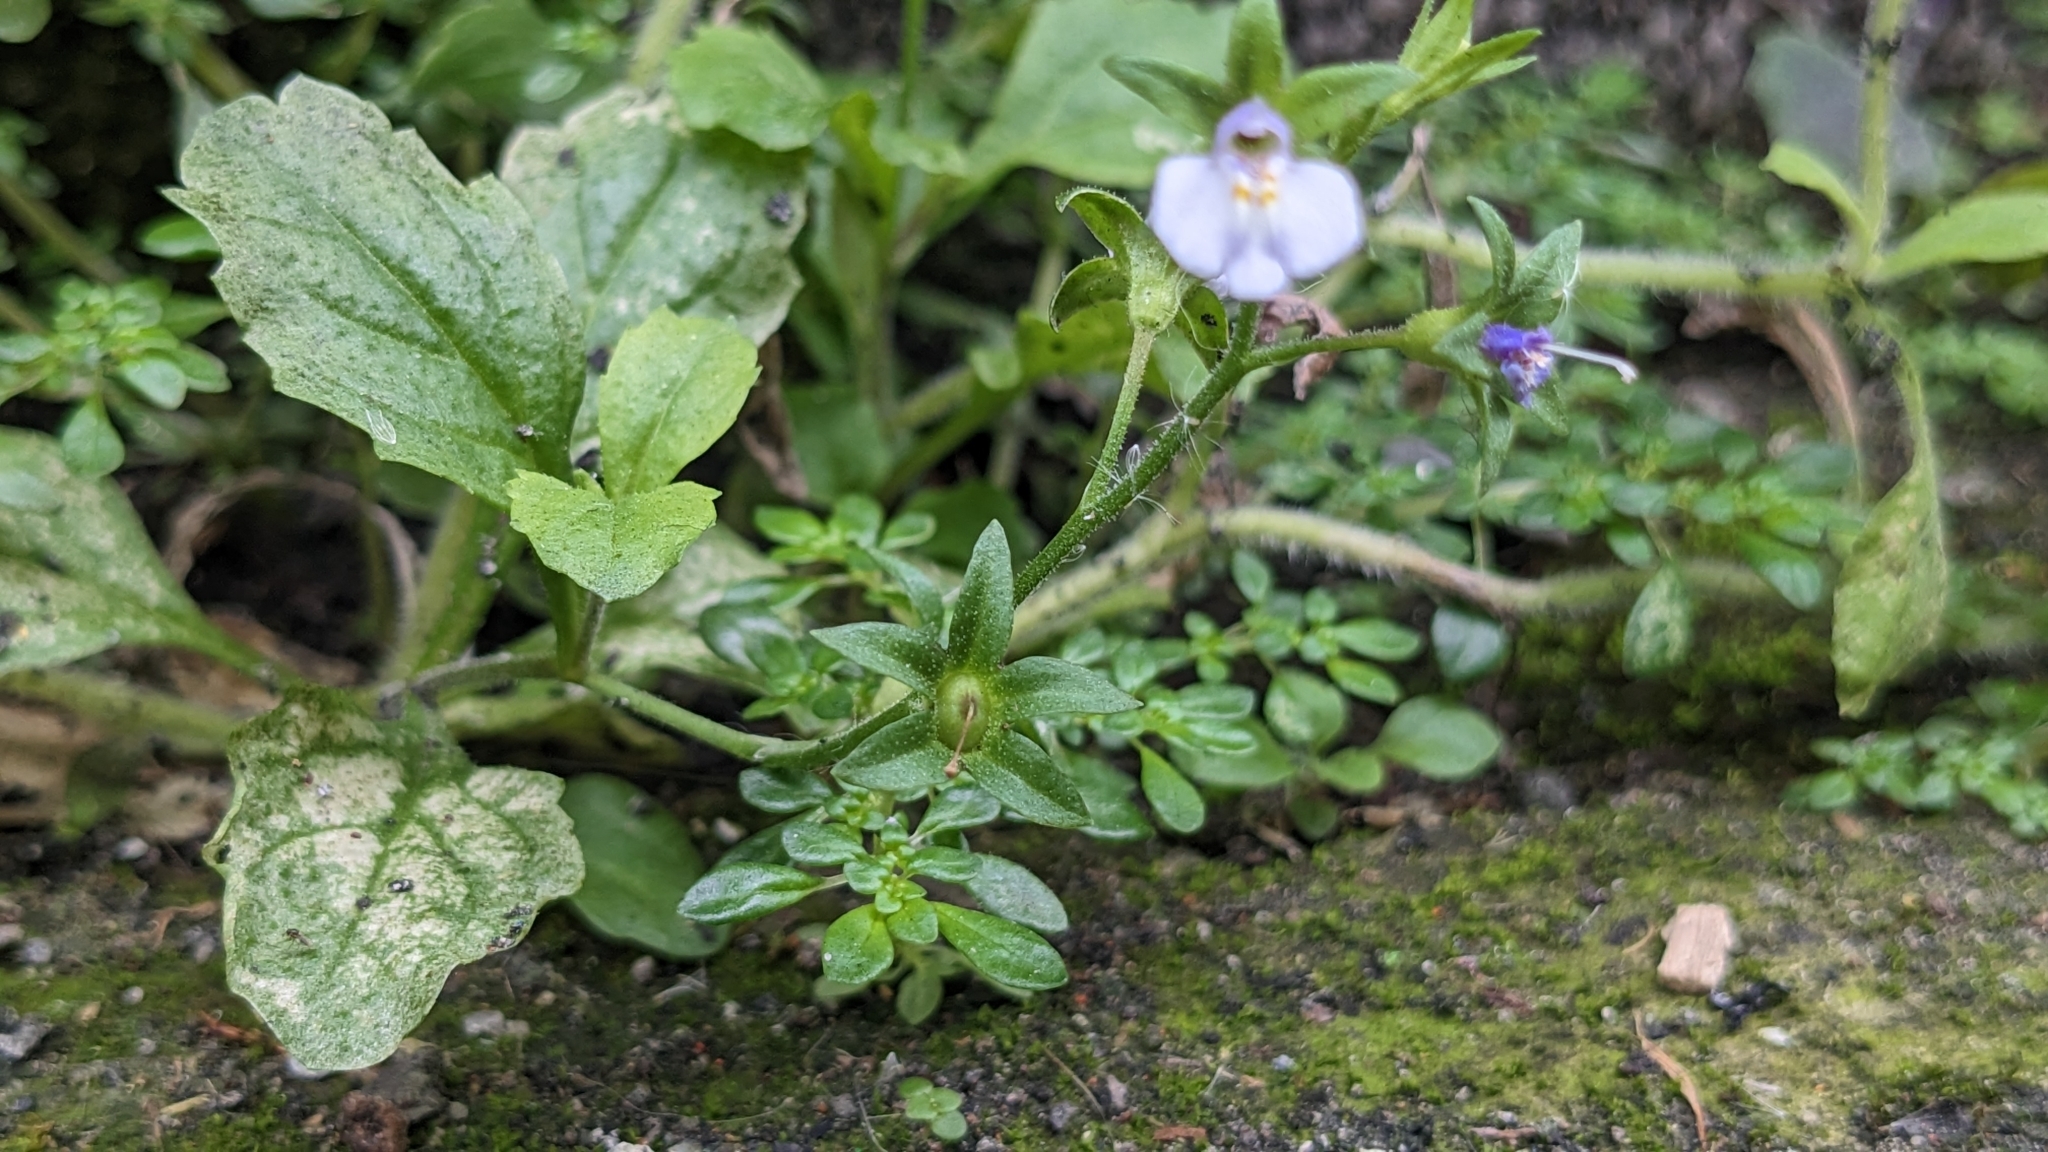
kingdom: Plantae
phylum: Tracheophyta
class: Magnoliopsida
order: Lamiales
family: Mazaceae
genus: Mazus
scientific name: Mazus pumilus
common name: Japanese mazus
